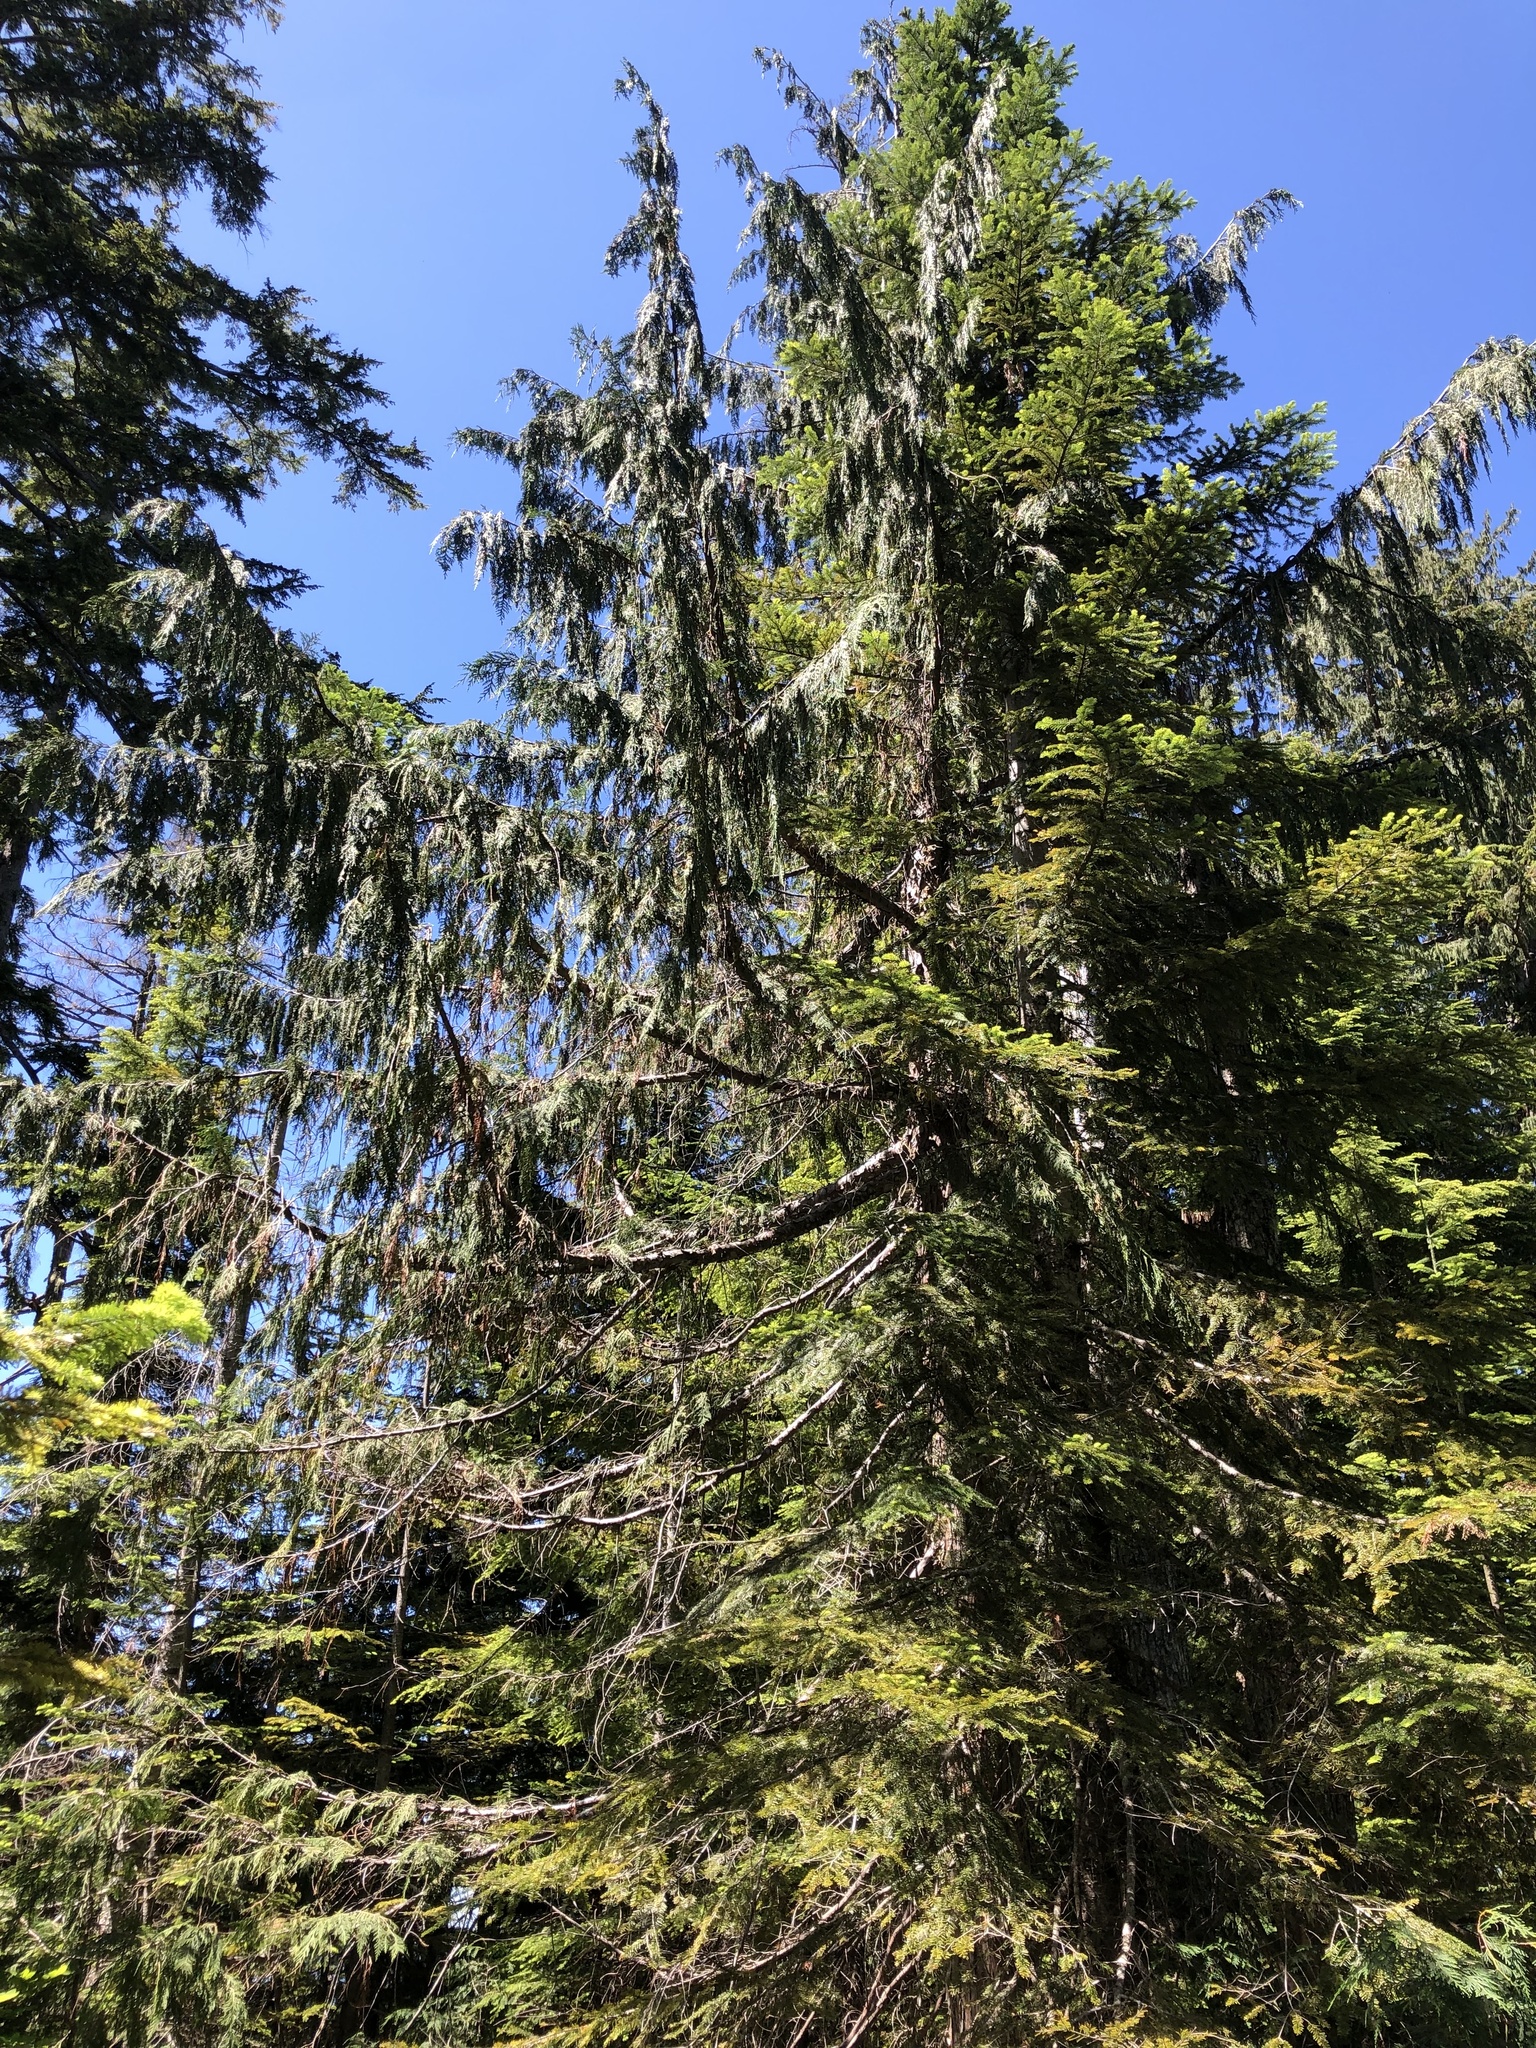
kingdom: Plantae
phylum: Tracheophyta
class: Pinopsida
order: Pinales
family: Cupressaceae
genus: Xanthocyparis
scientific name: Xanthocyparis nootkatensis
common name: Nootka cypress
